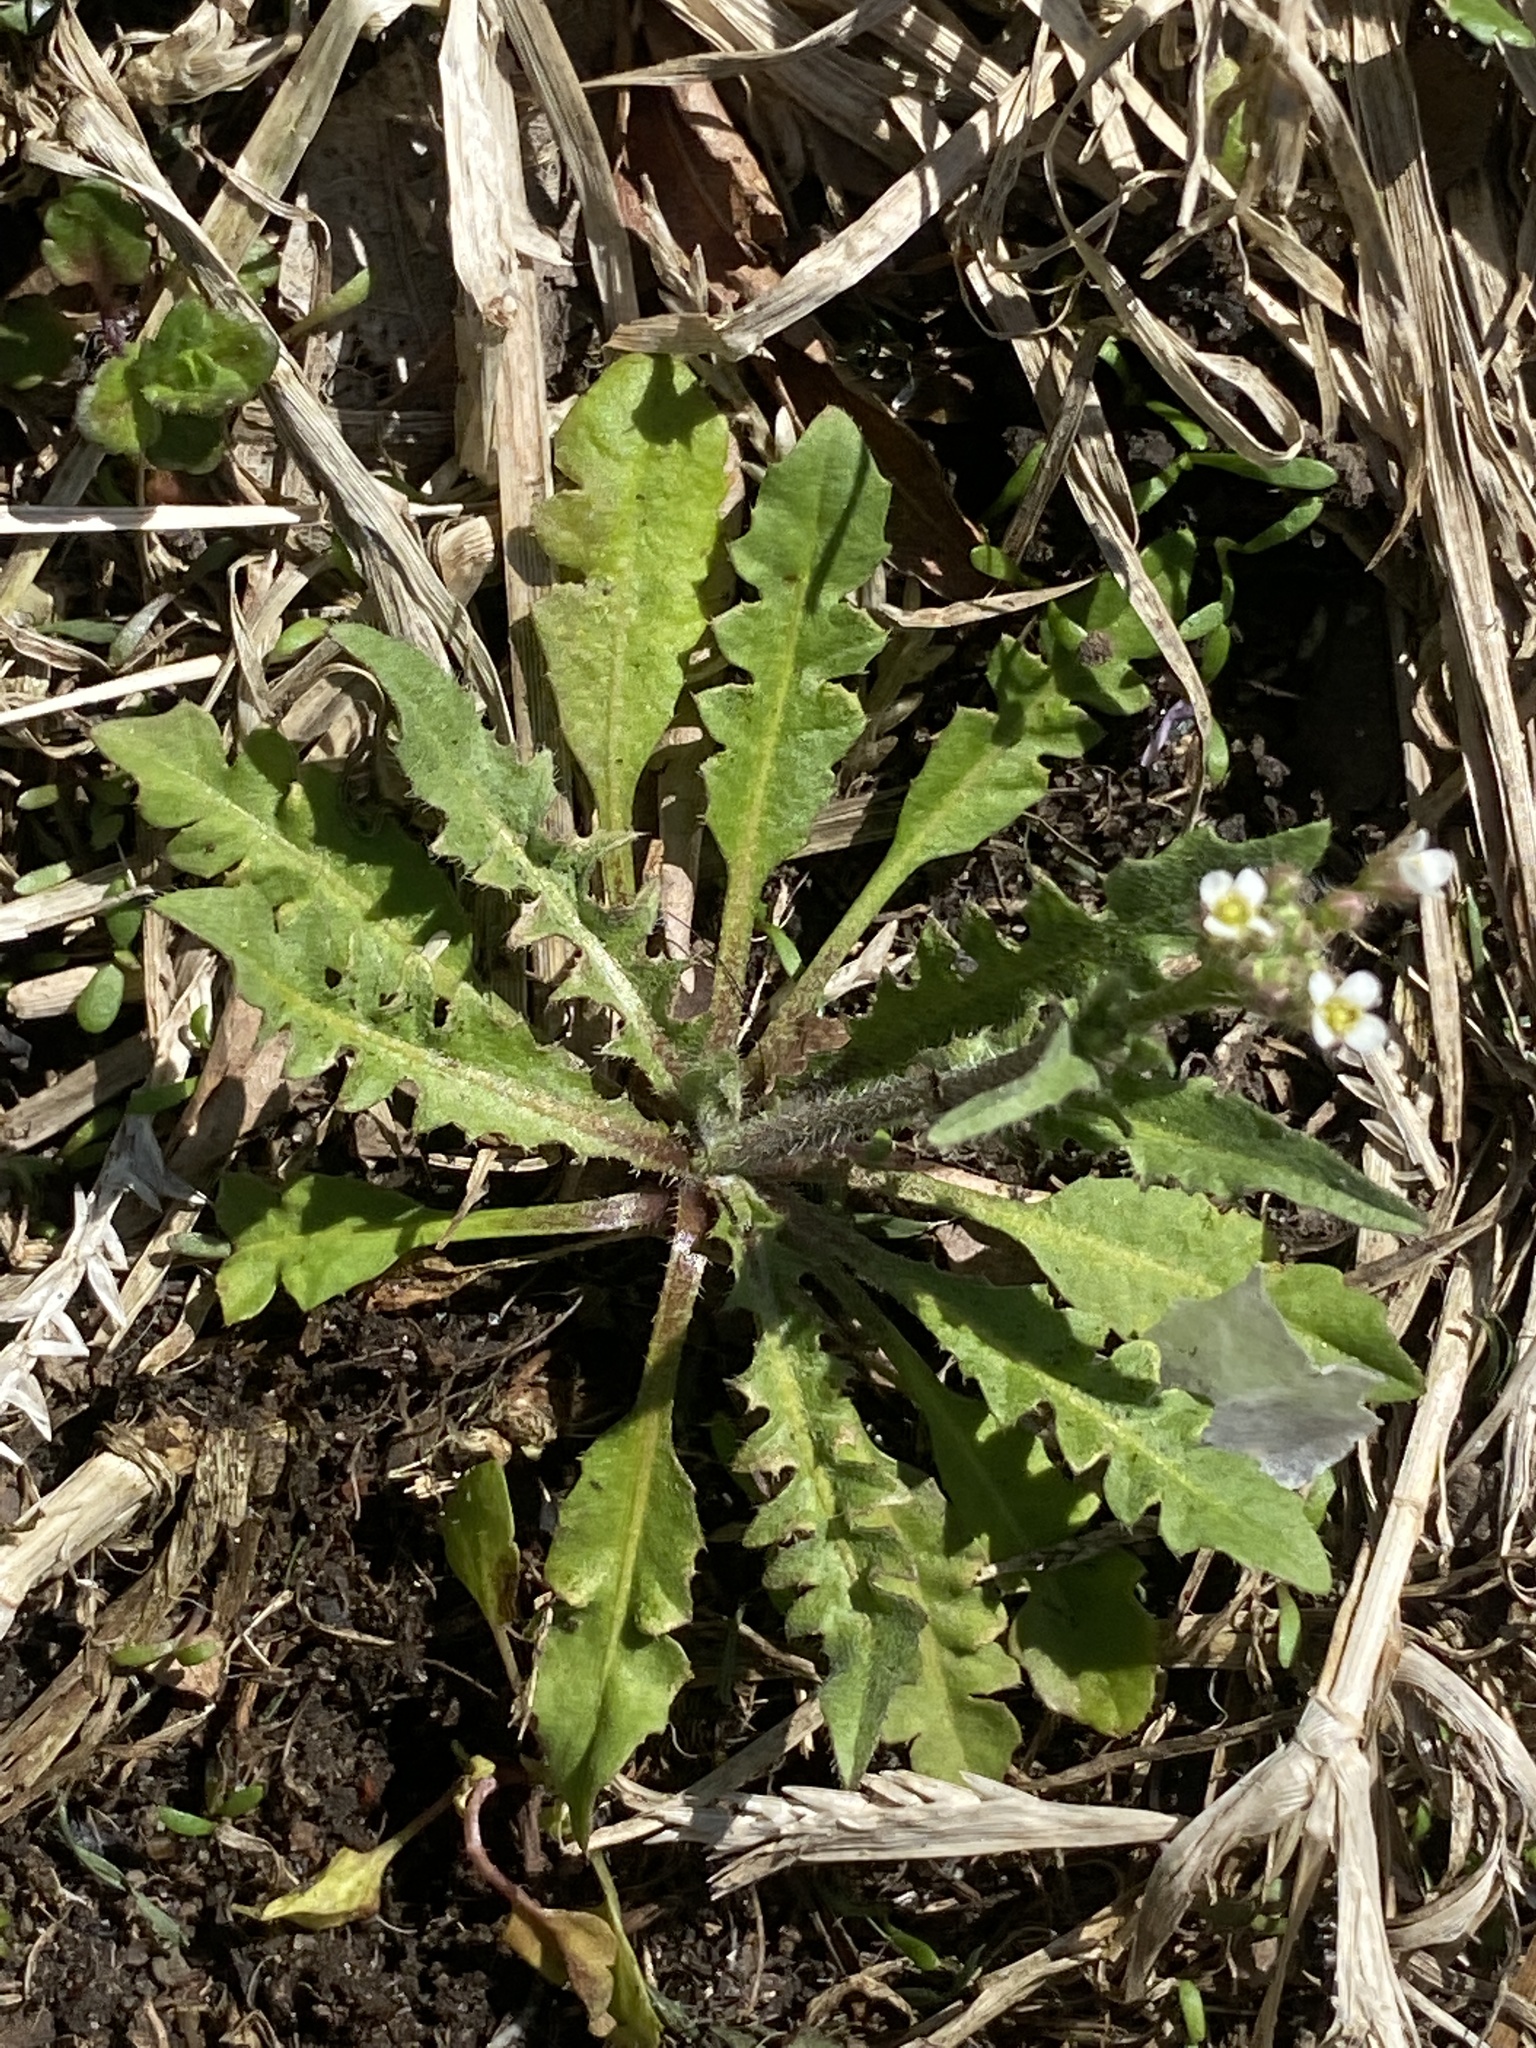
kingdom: Plantae
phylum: Tracheophyta
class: Magnoliopsida
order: Brassicales
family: Brassicaceae
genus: Capsella
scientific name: Capsella bursa-pastoris
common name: Shepherd's purse
